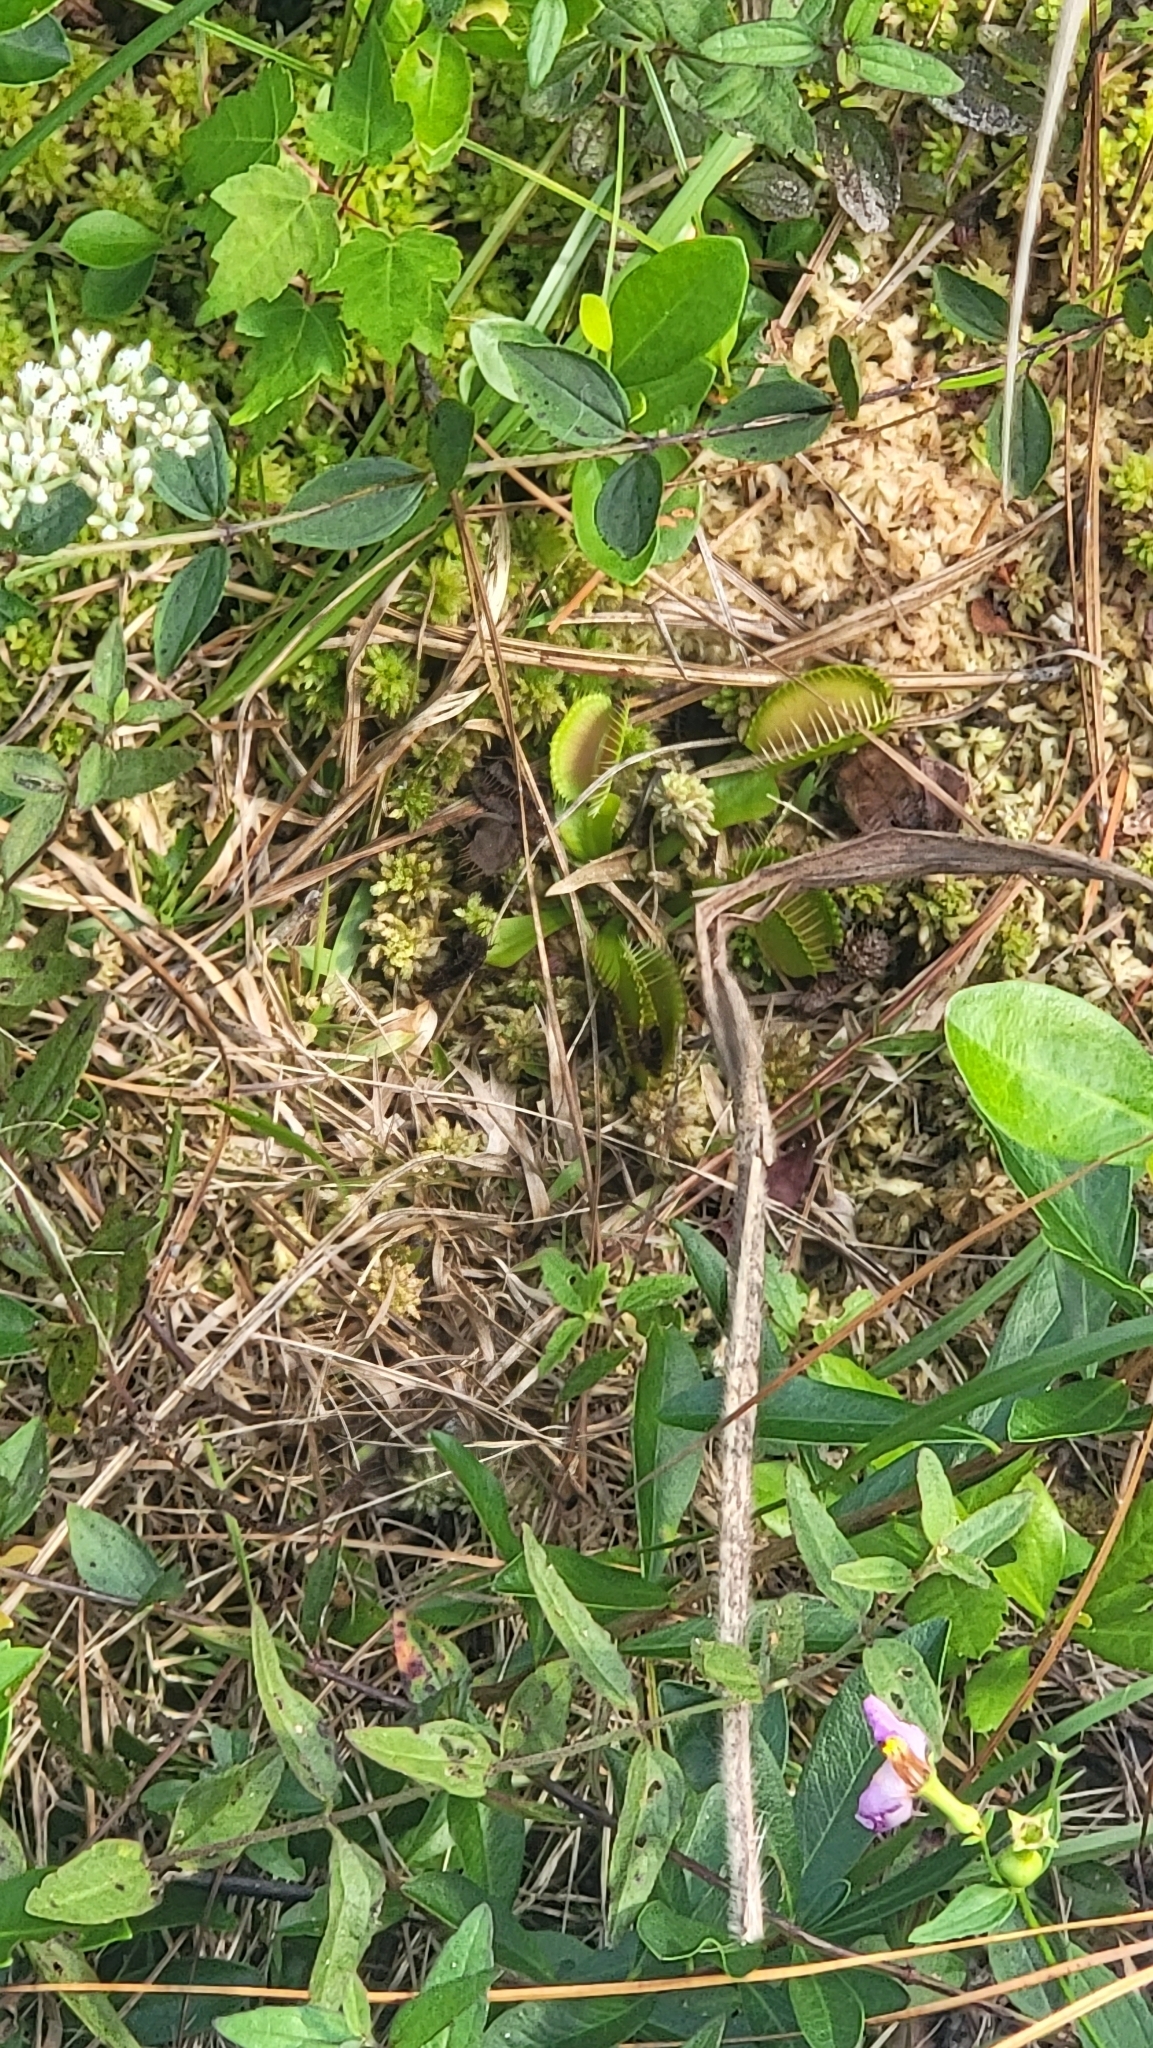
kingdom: Plantae
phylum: Tracheophyta
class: Magnoliopsida
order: Caryophyllales
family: Droseraceae
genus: Dionaea
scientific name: Dionaea muscipula
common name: Venus flytrap
